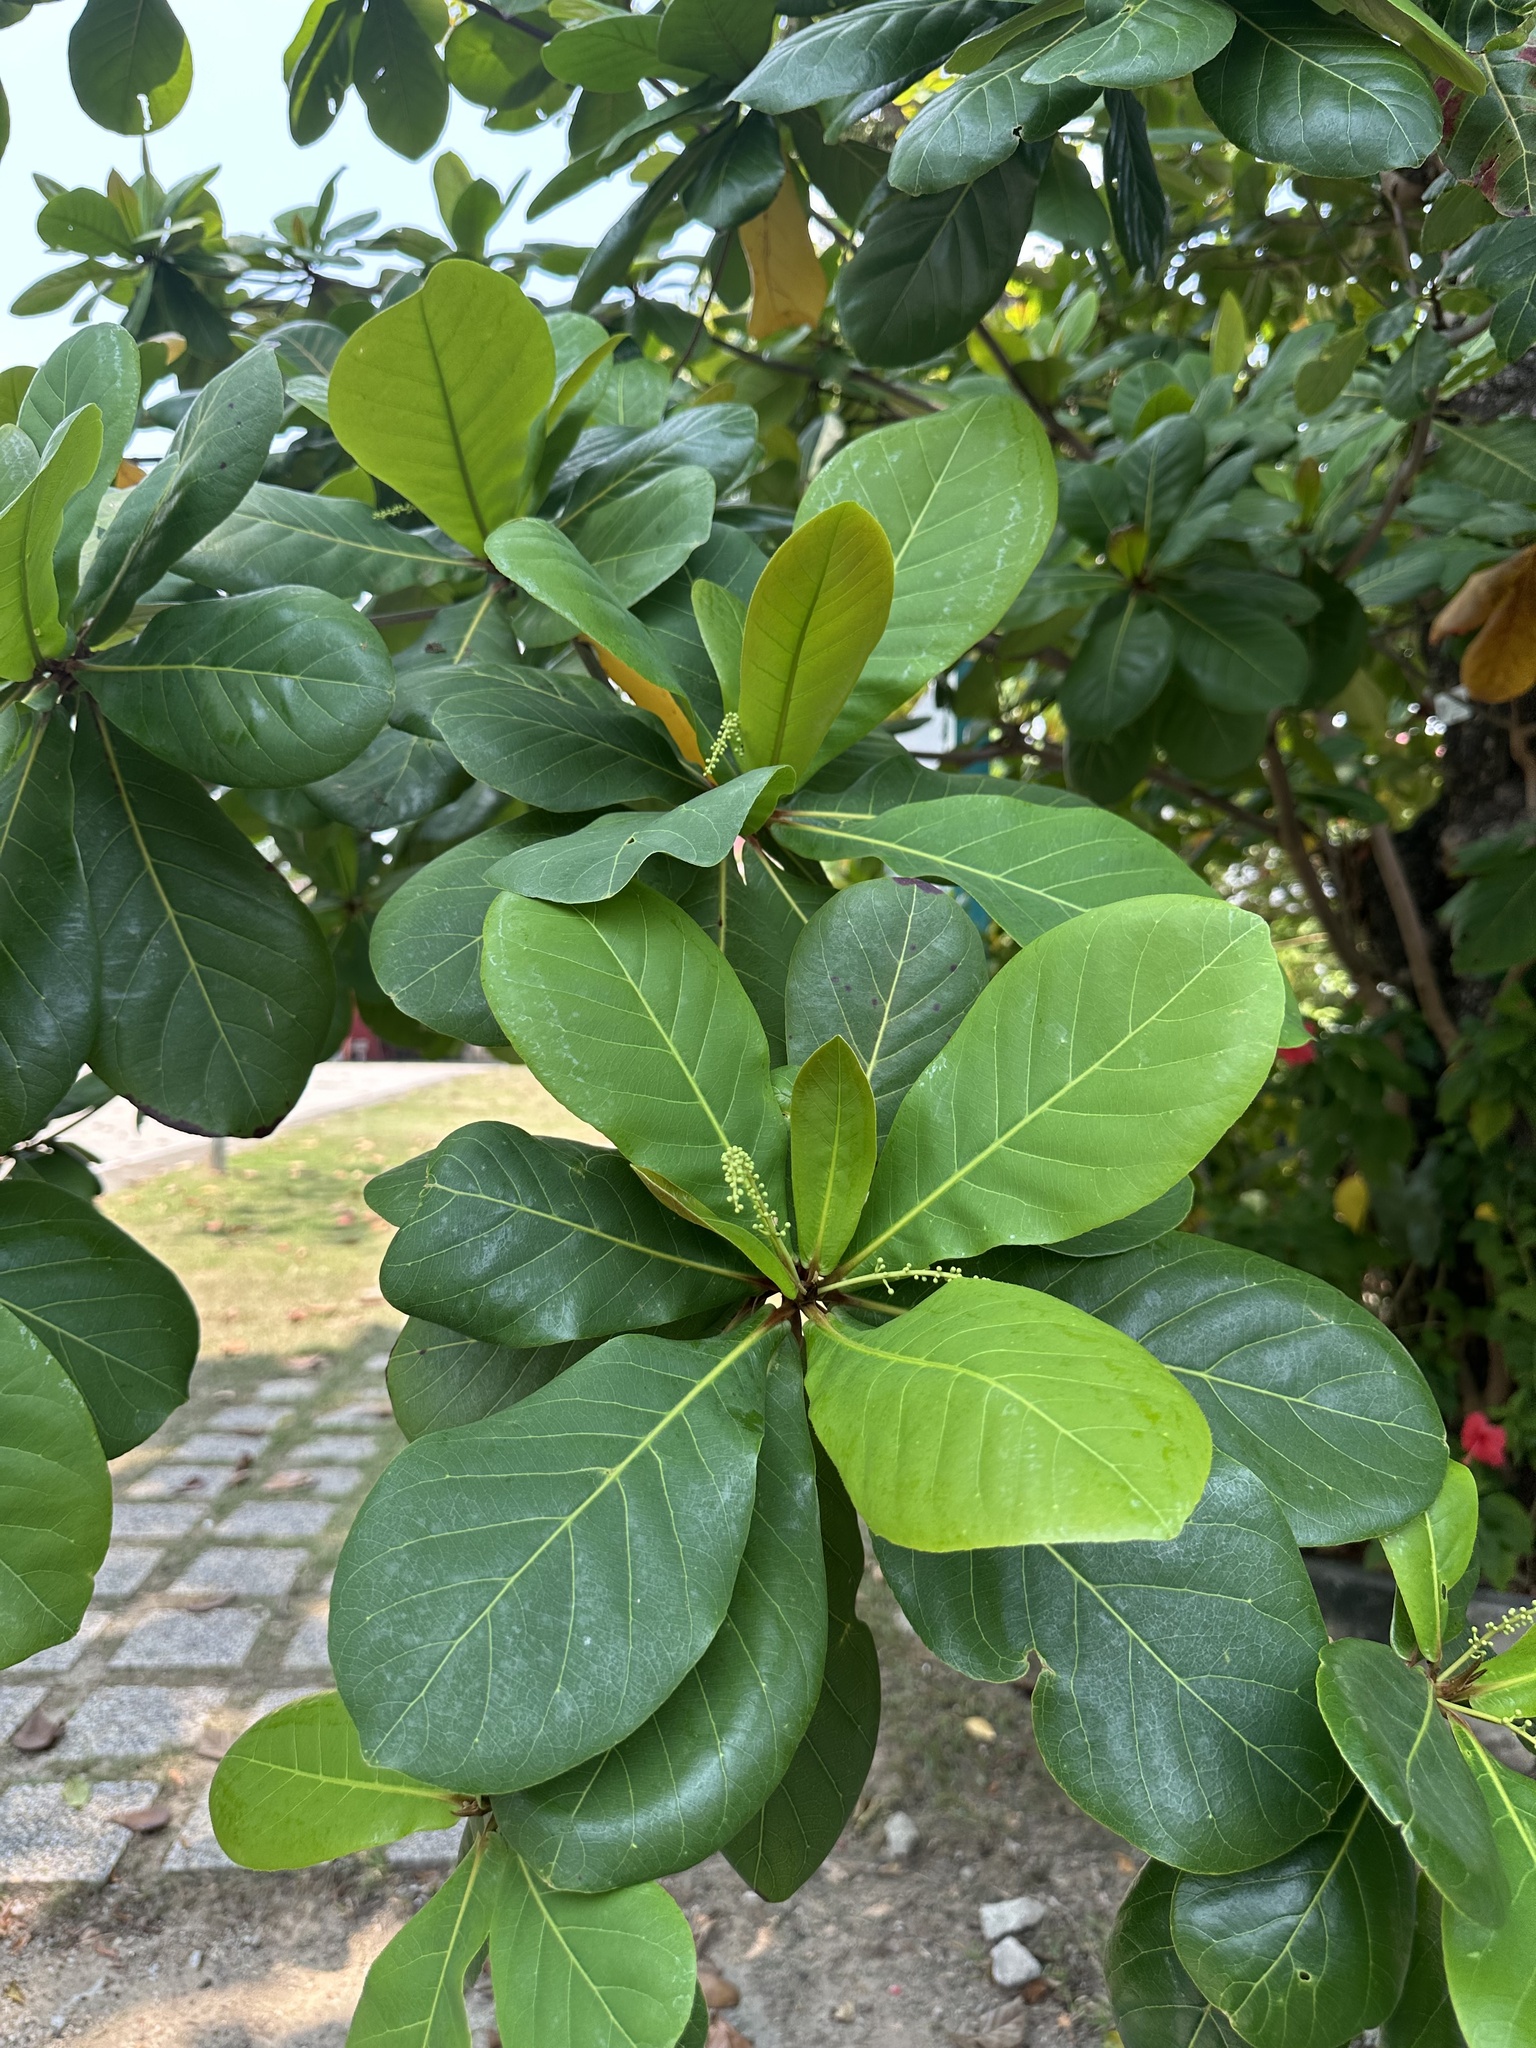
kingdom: Plantae
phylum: Tracheophyta
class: Magnoliopsida
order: Myrtales
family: Combretaceae
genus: Terminalia
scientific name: Terminalia catappa
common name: Tropical almond
